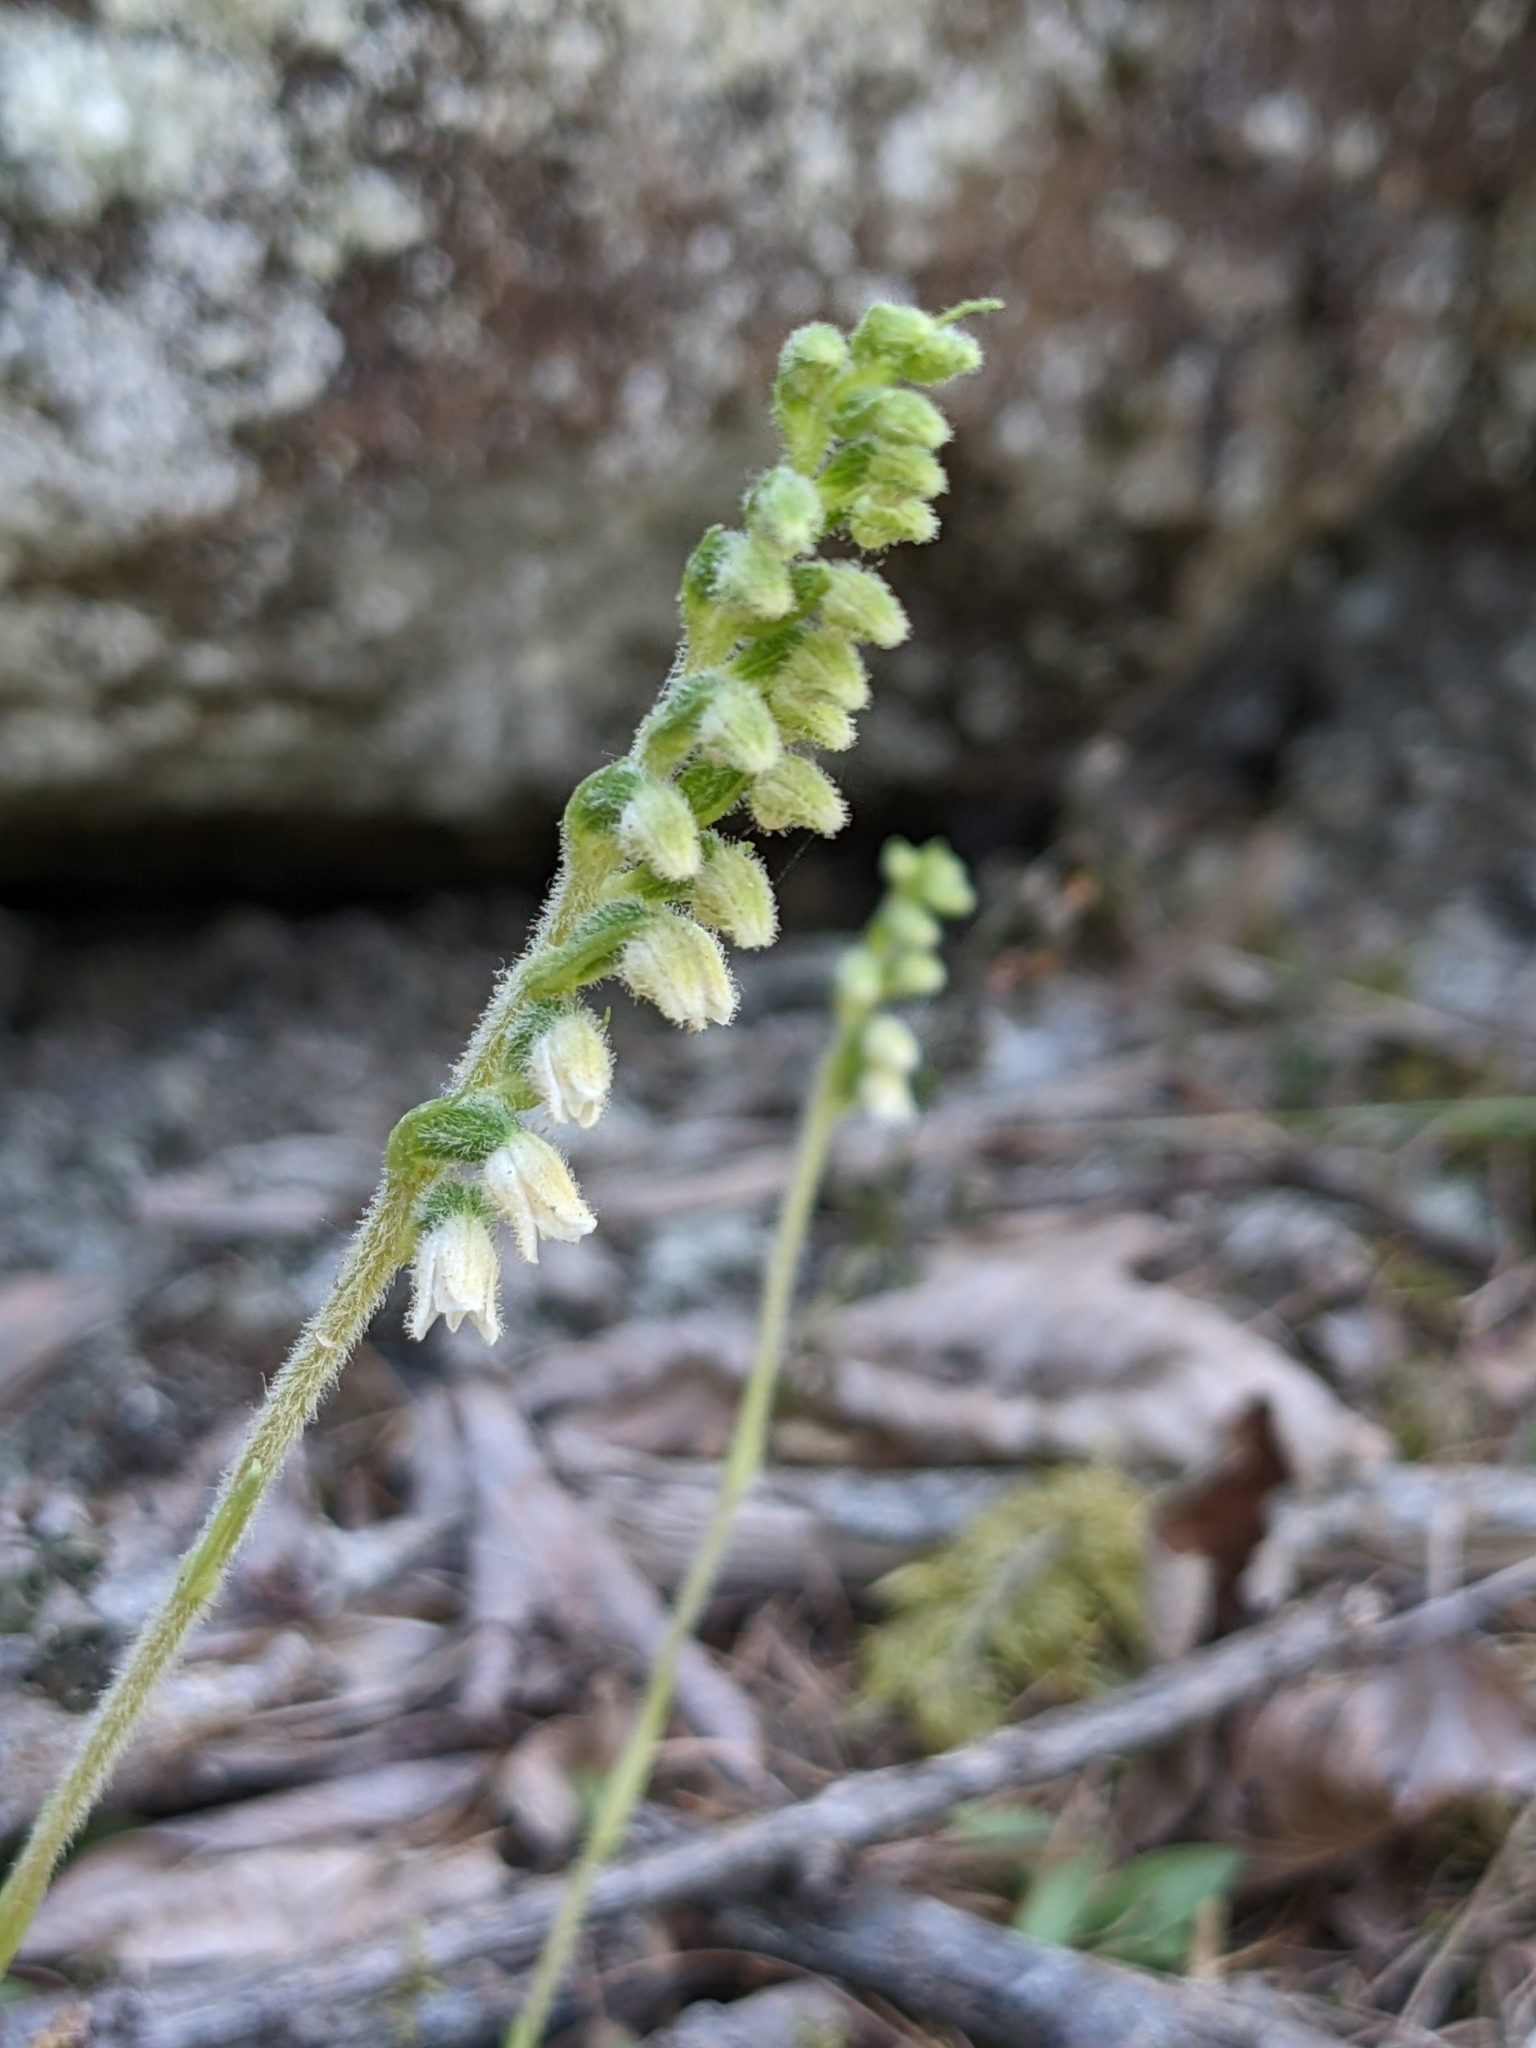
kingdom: Plantae
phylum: Tracheophyta
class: Liliopsida
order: Asparagales
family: Orchidaceae
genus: Goodyera
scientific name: Goodyera repens
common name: Creeping lady's-tresses
